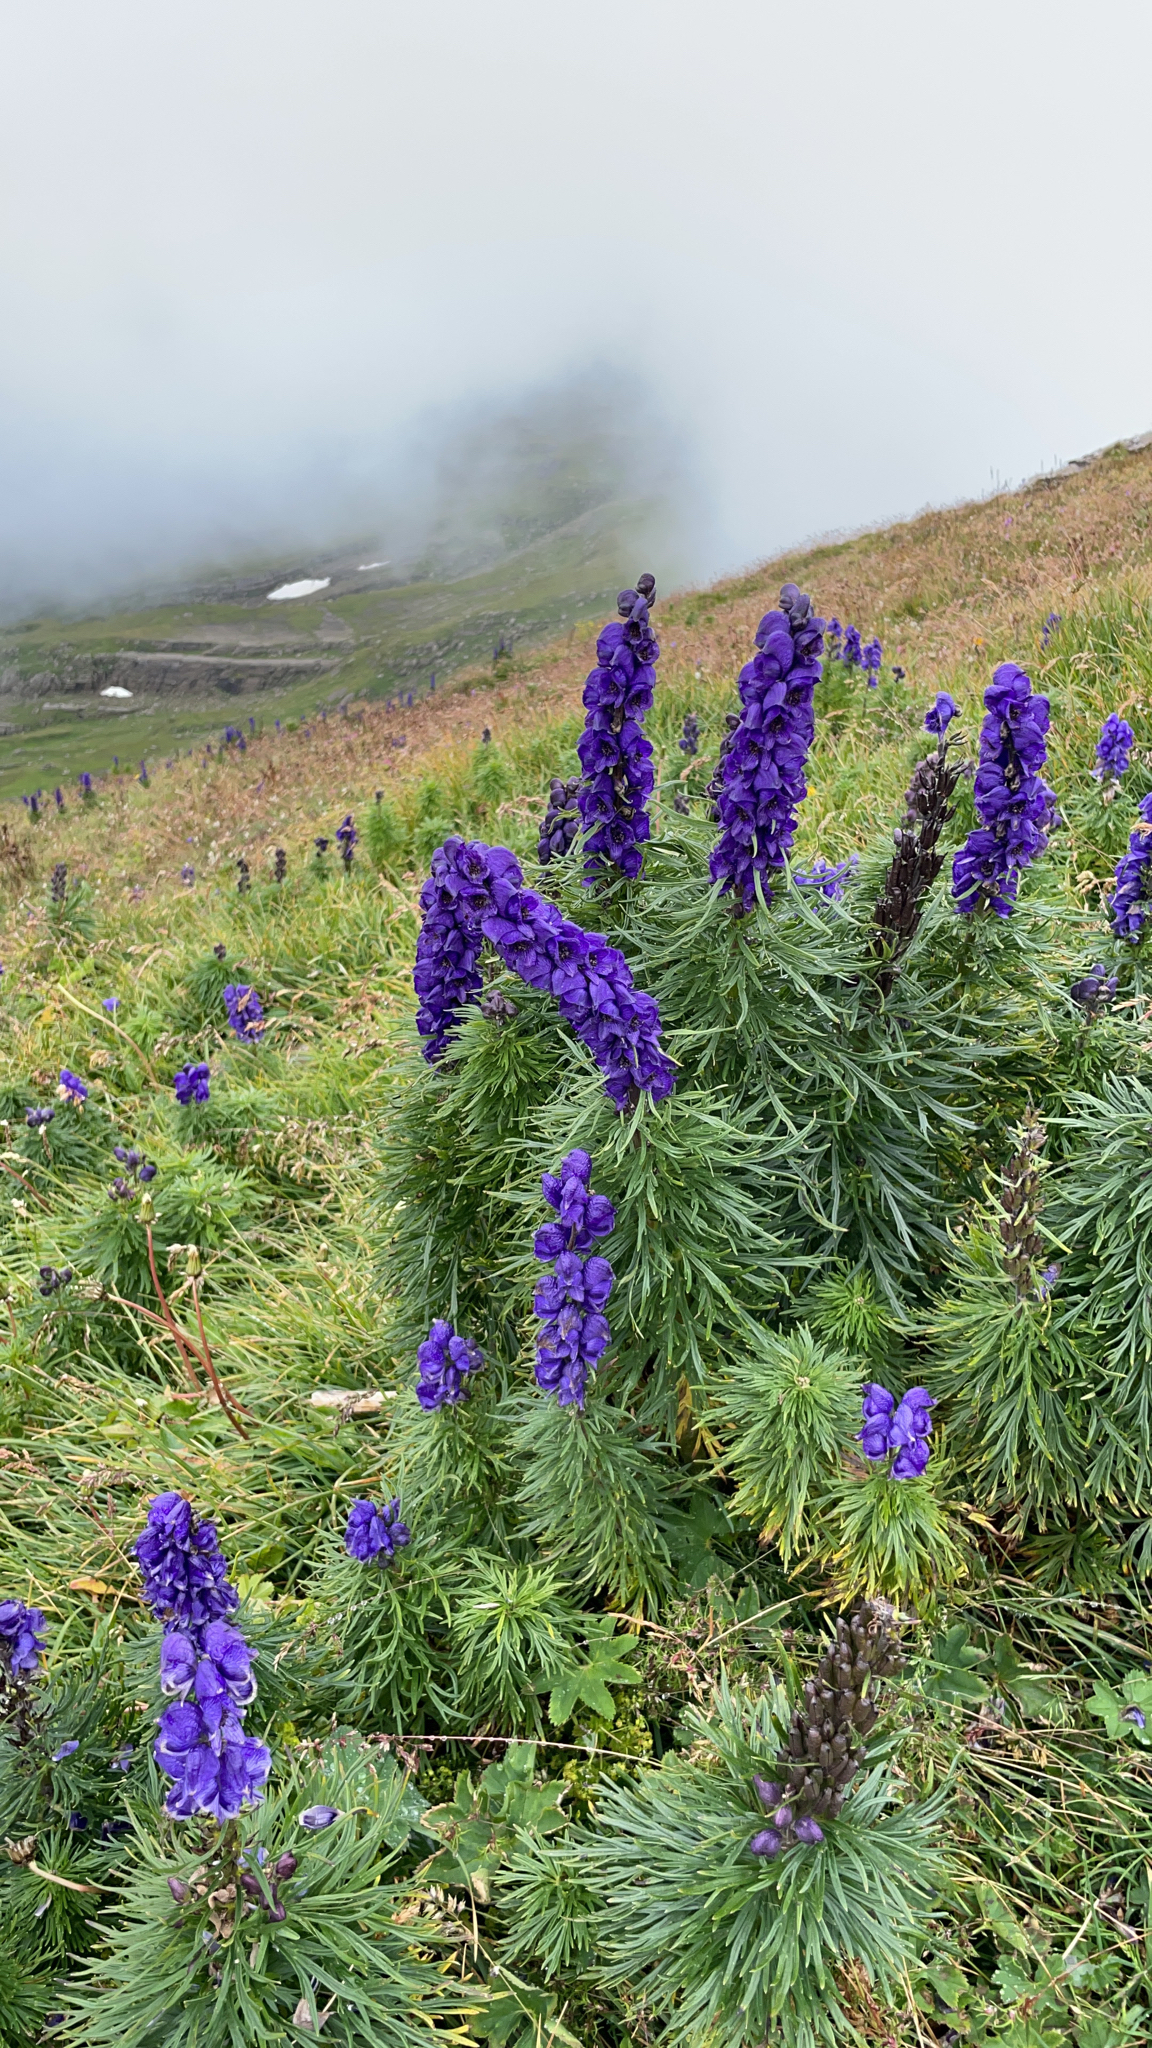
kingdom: Plantae
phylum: Tracheophyta
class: Magnoliopsida
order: Ranunculales
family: Ranunculaceae
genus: Aconitum
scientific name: Aconitum napellus
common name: Garden monkshood
